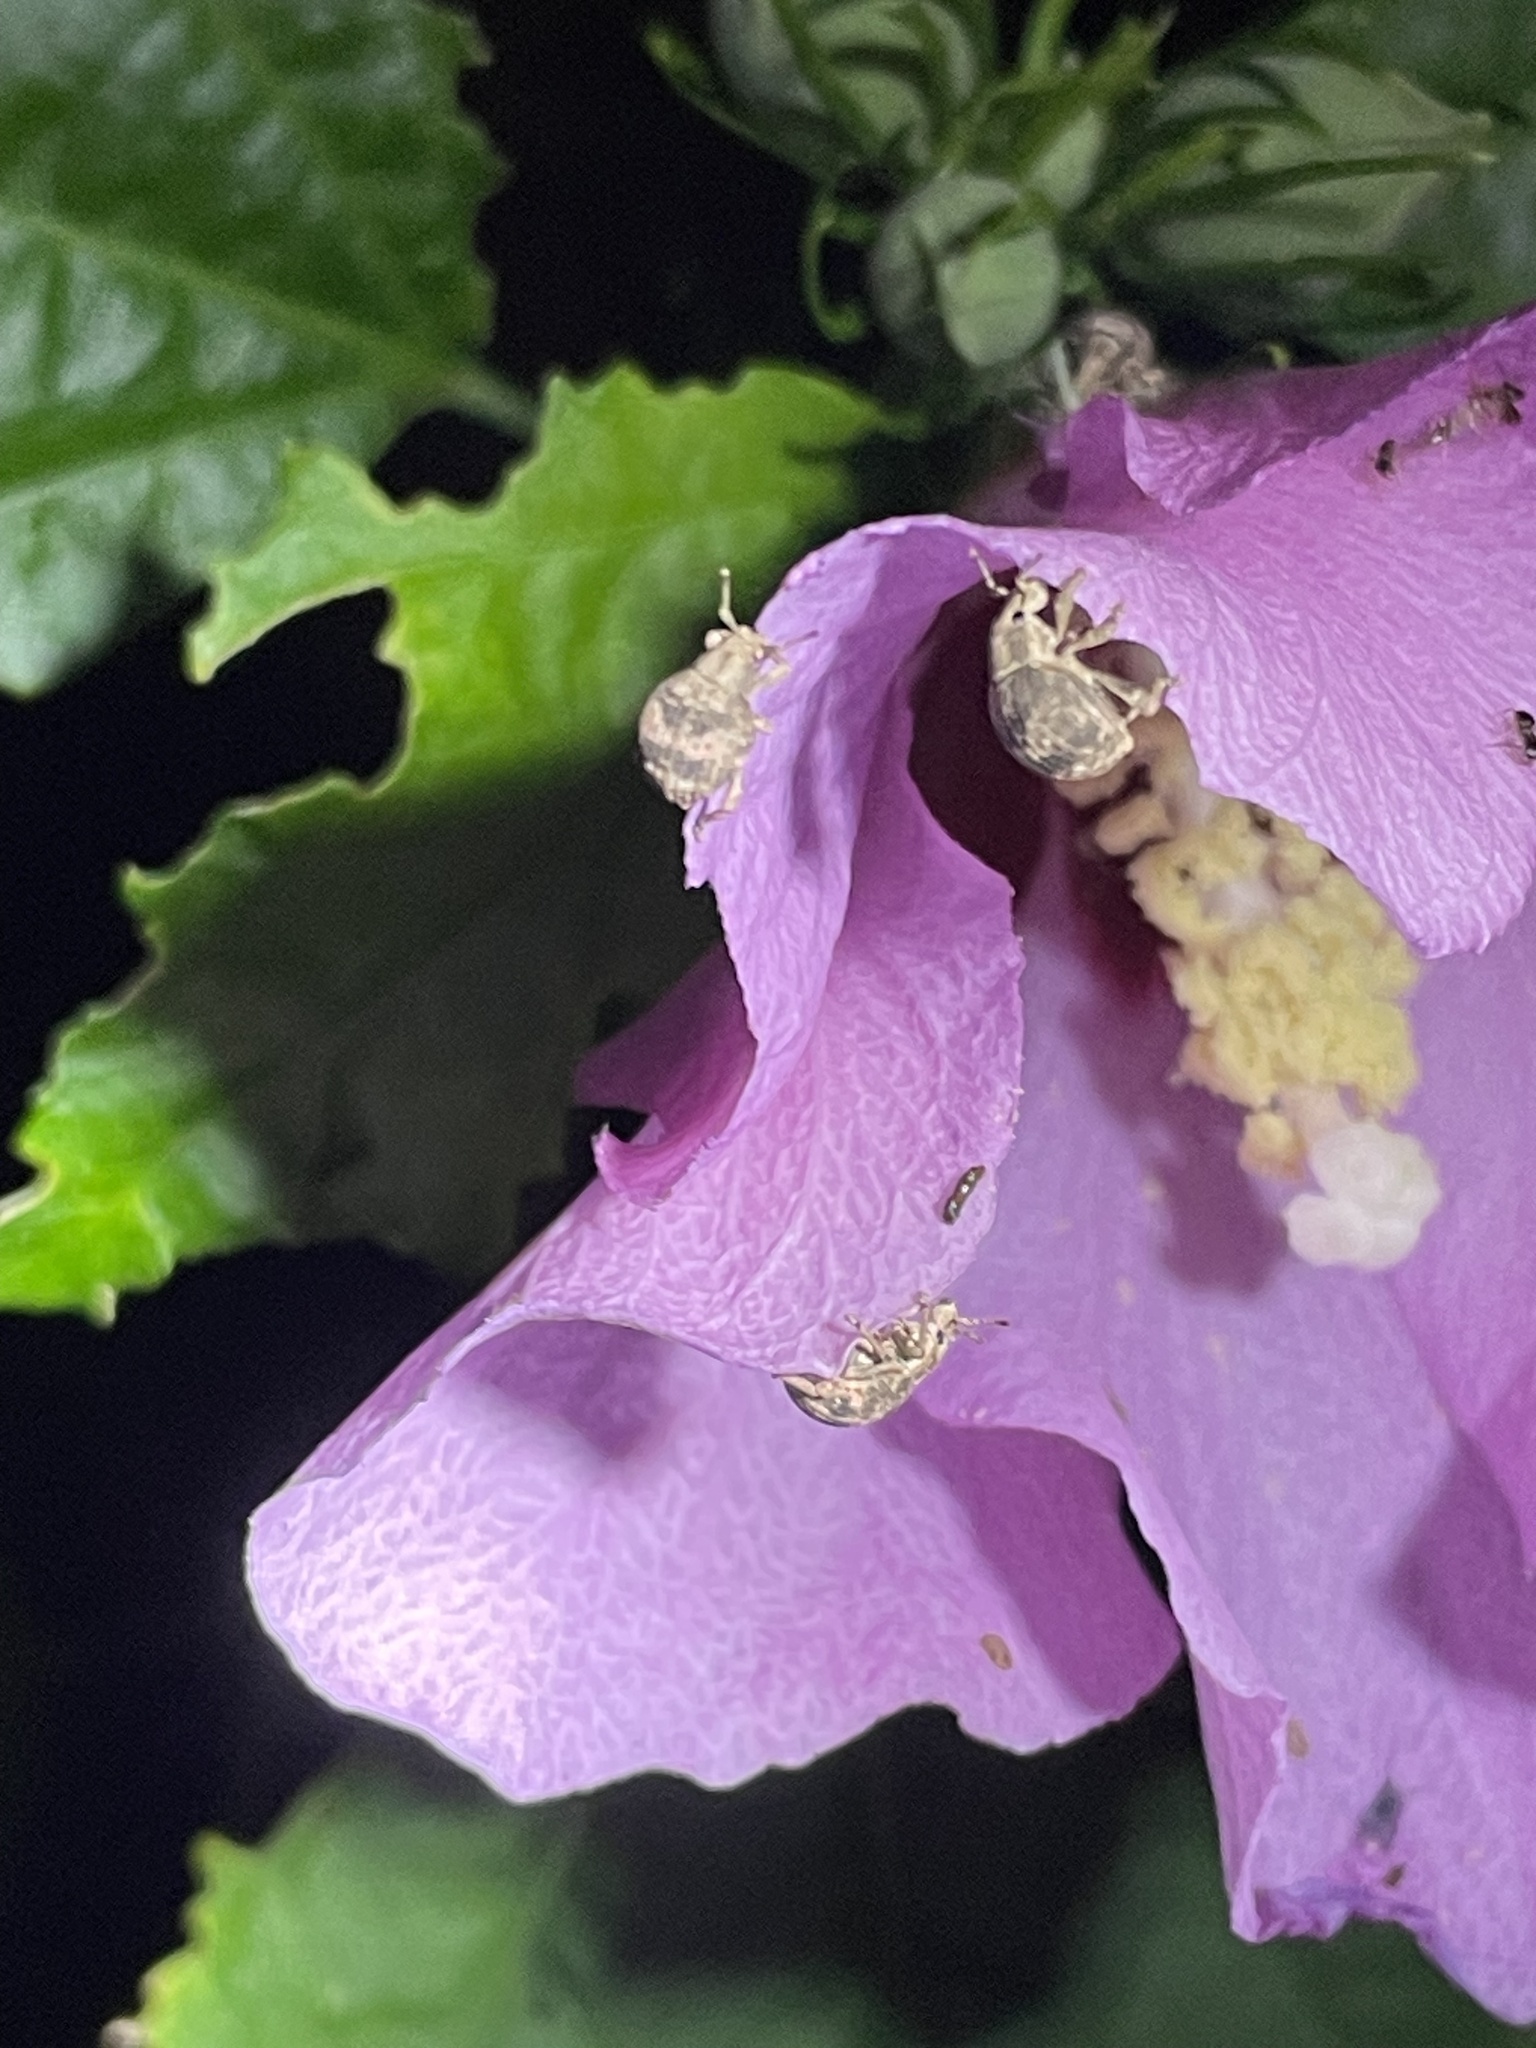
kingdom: Animalia
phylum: Arthropoda
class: Insecta
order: Coleoptera
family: Curculionidae
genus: Pseudocneorhinus
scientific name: Pseudocneorhinus bifasciatus
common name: Two-banded japanese weevil
